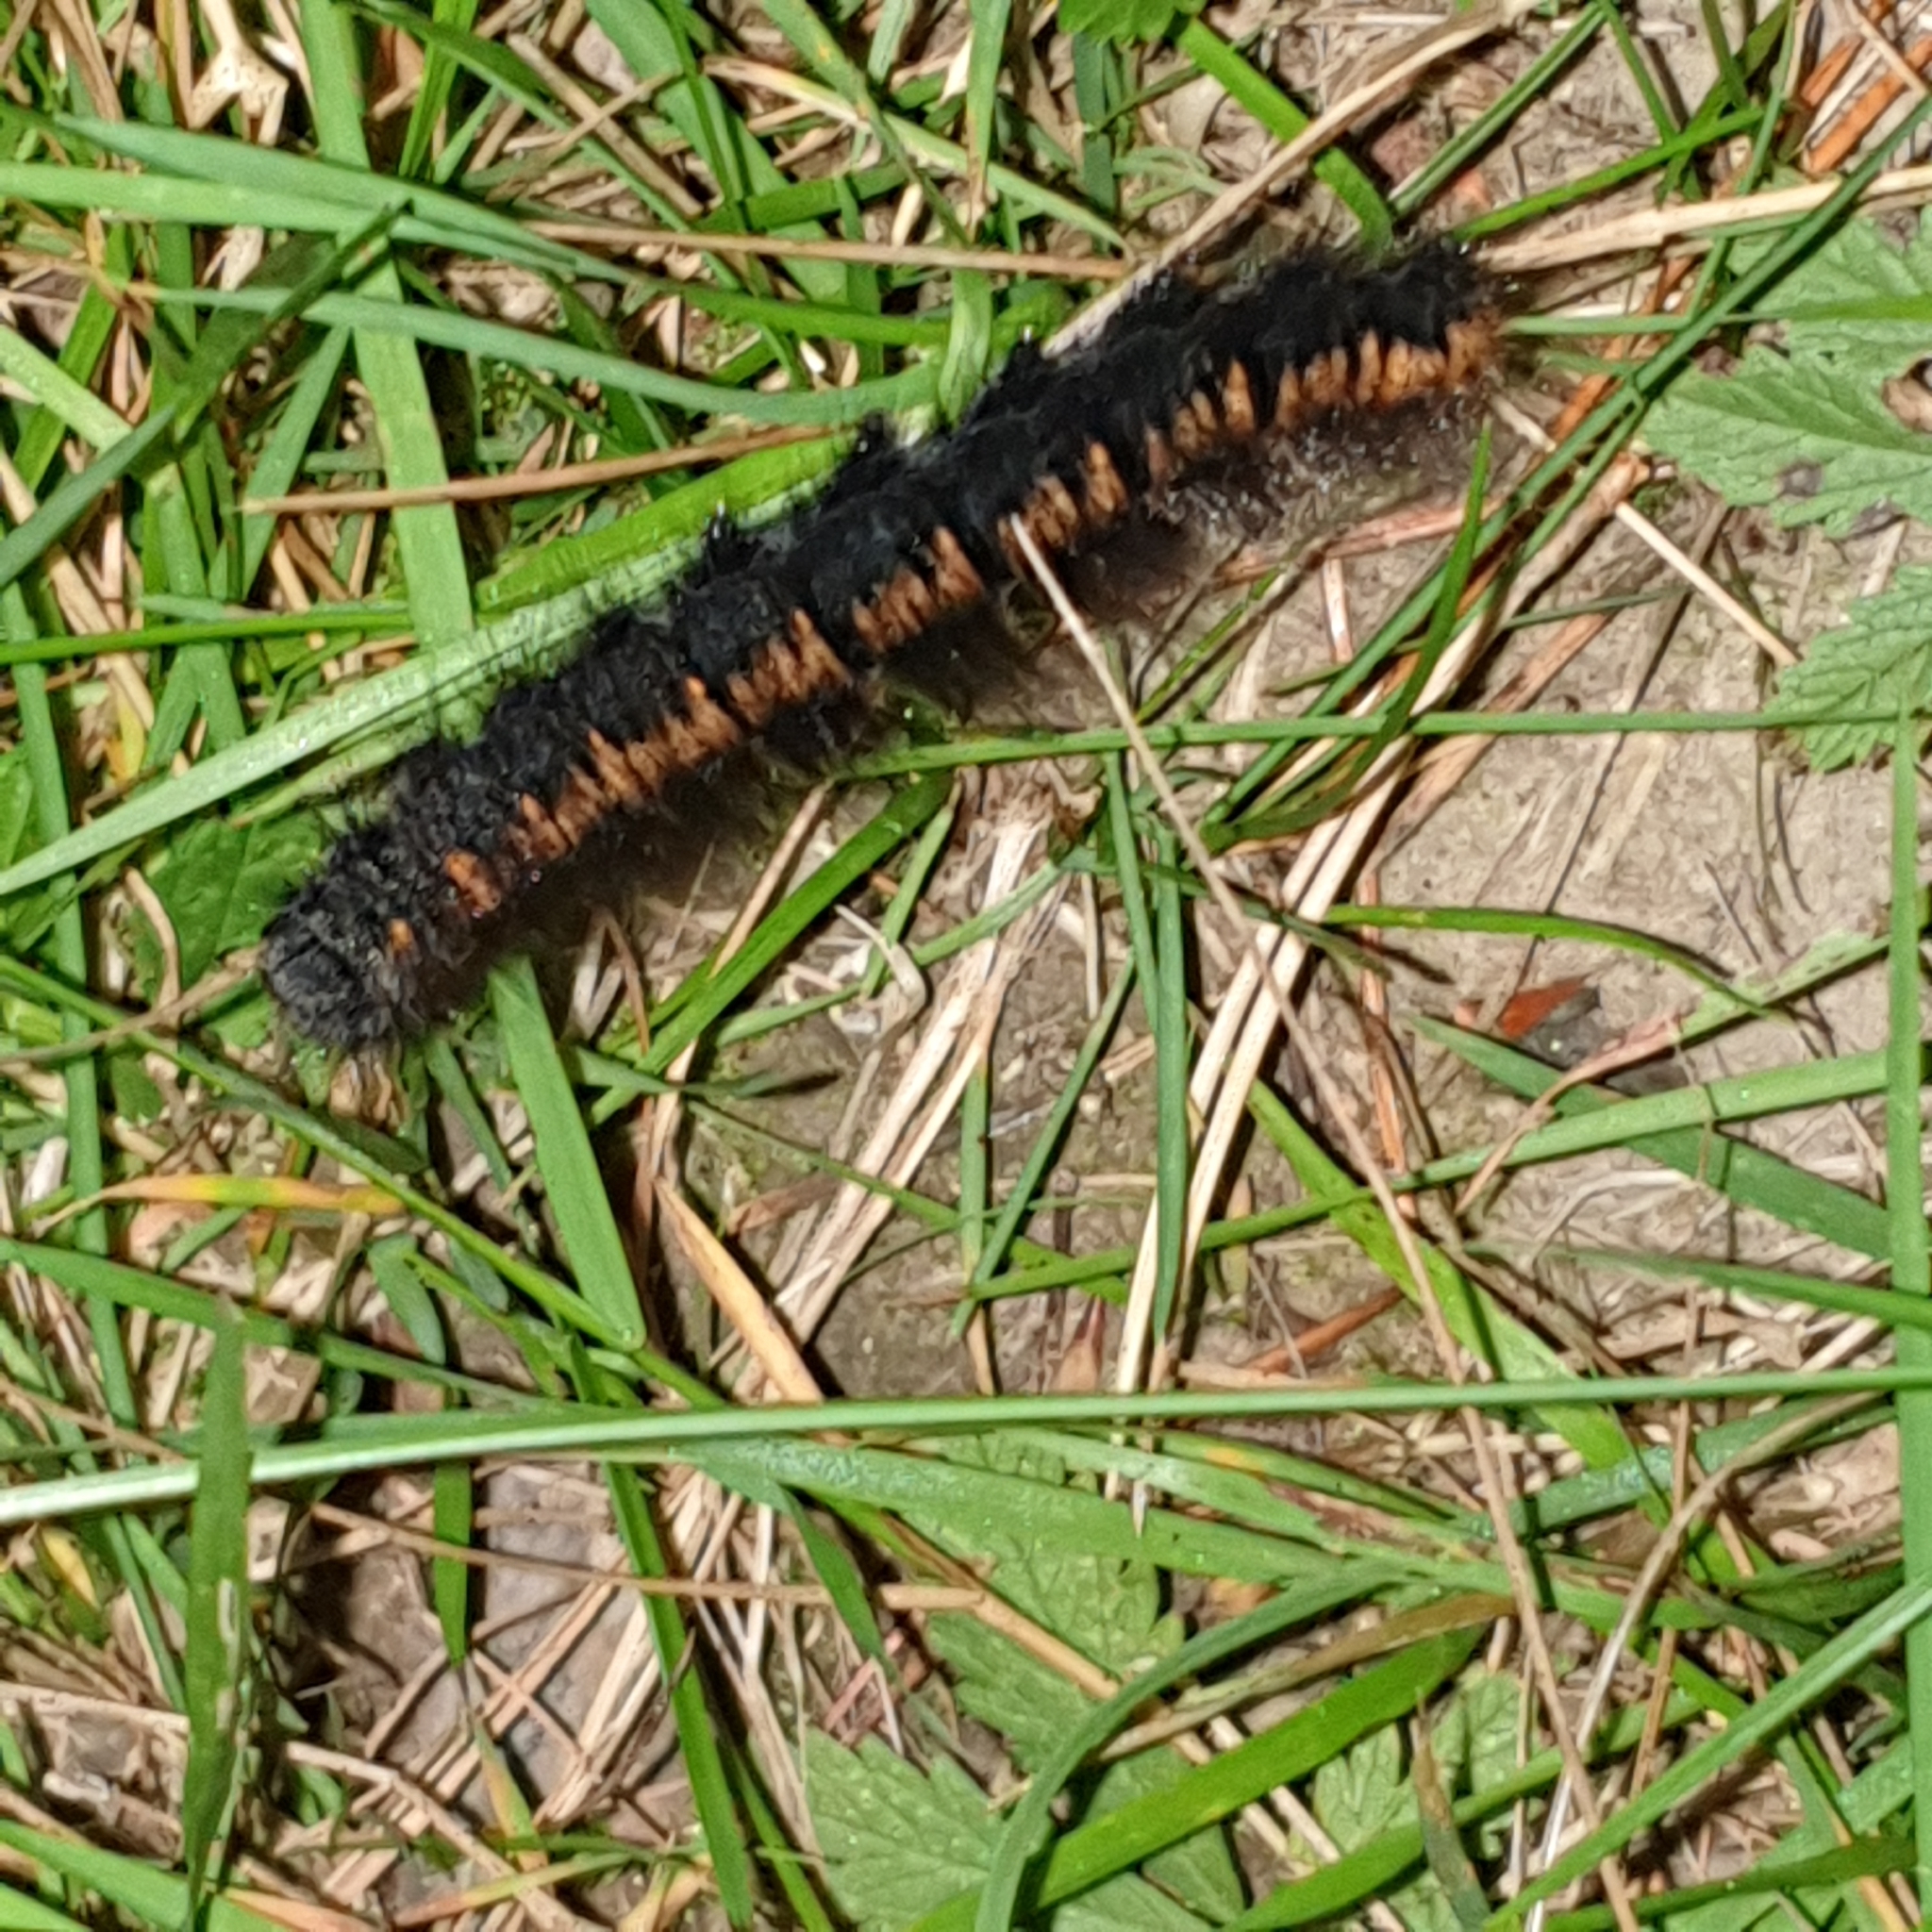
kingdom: Animalia
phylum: Arthropoda
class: Insecta
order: Lepidoptera
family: Lasiocampidae
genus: Macrothylacia
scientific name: Macrothylacia rubi
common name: Fox moth
